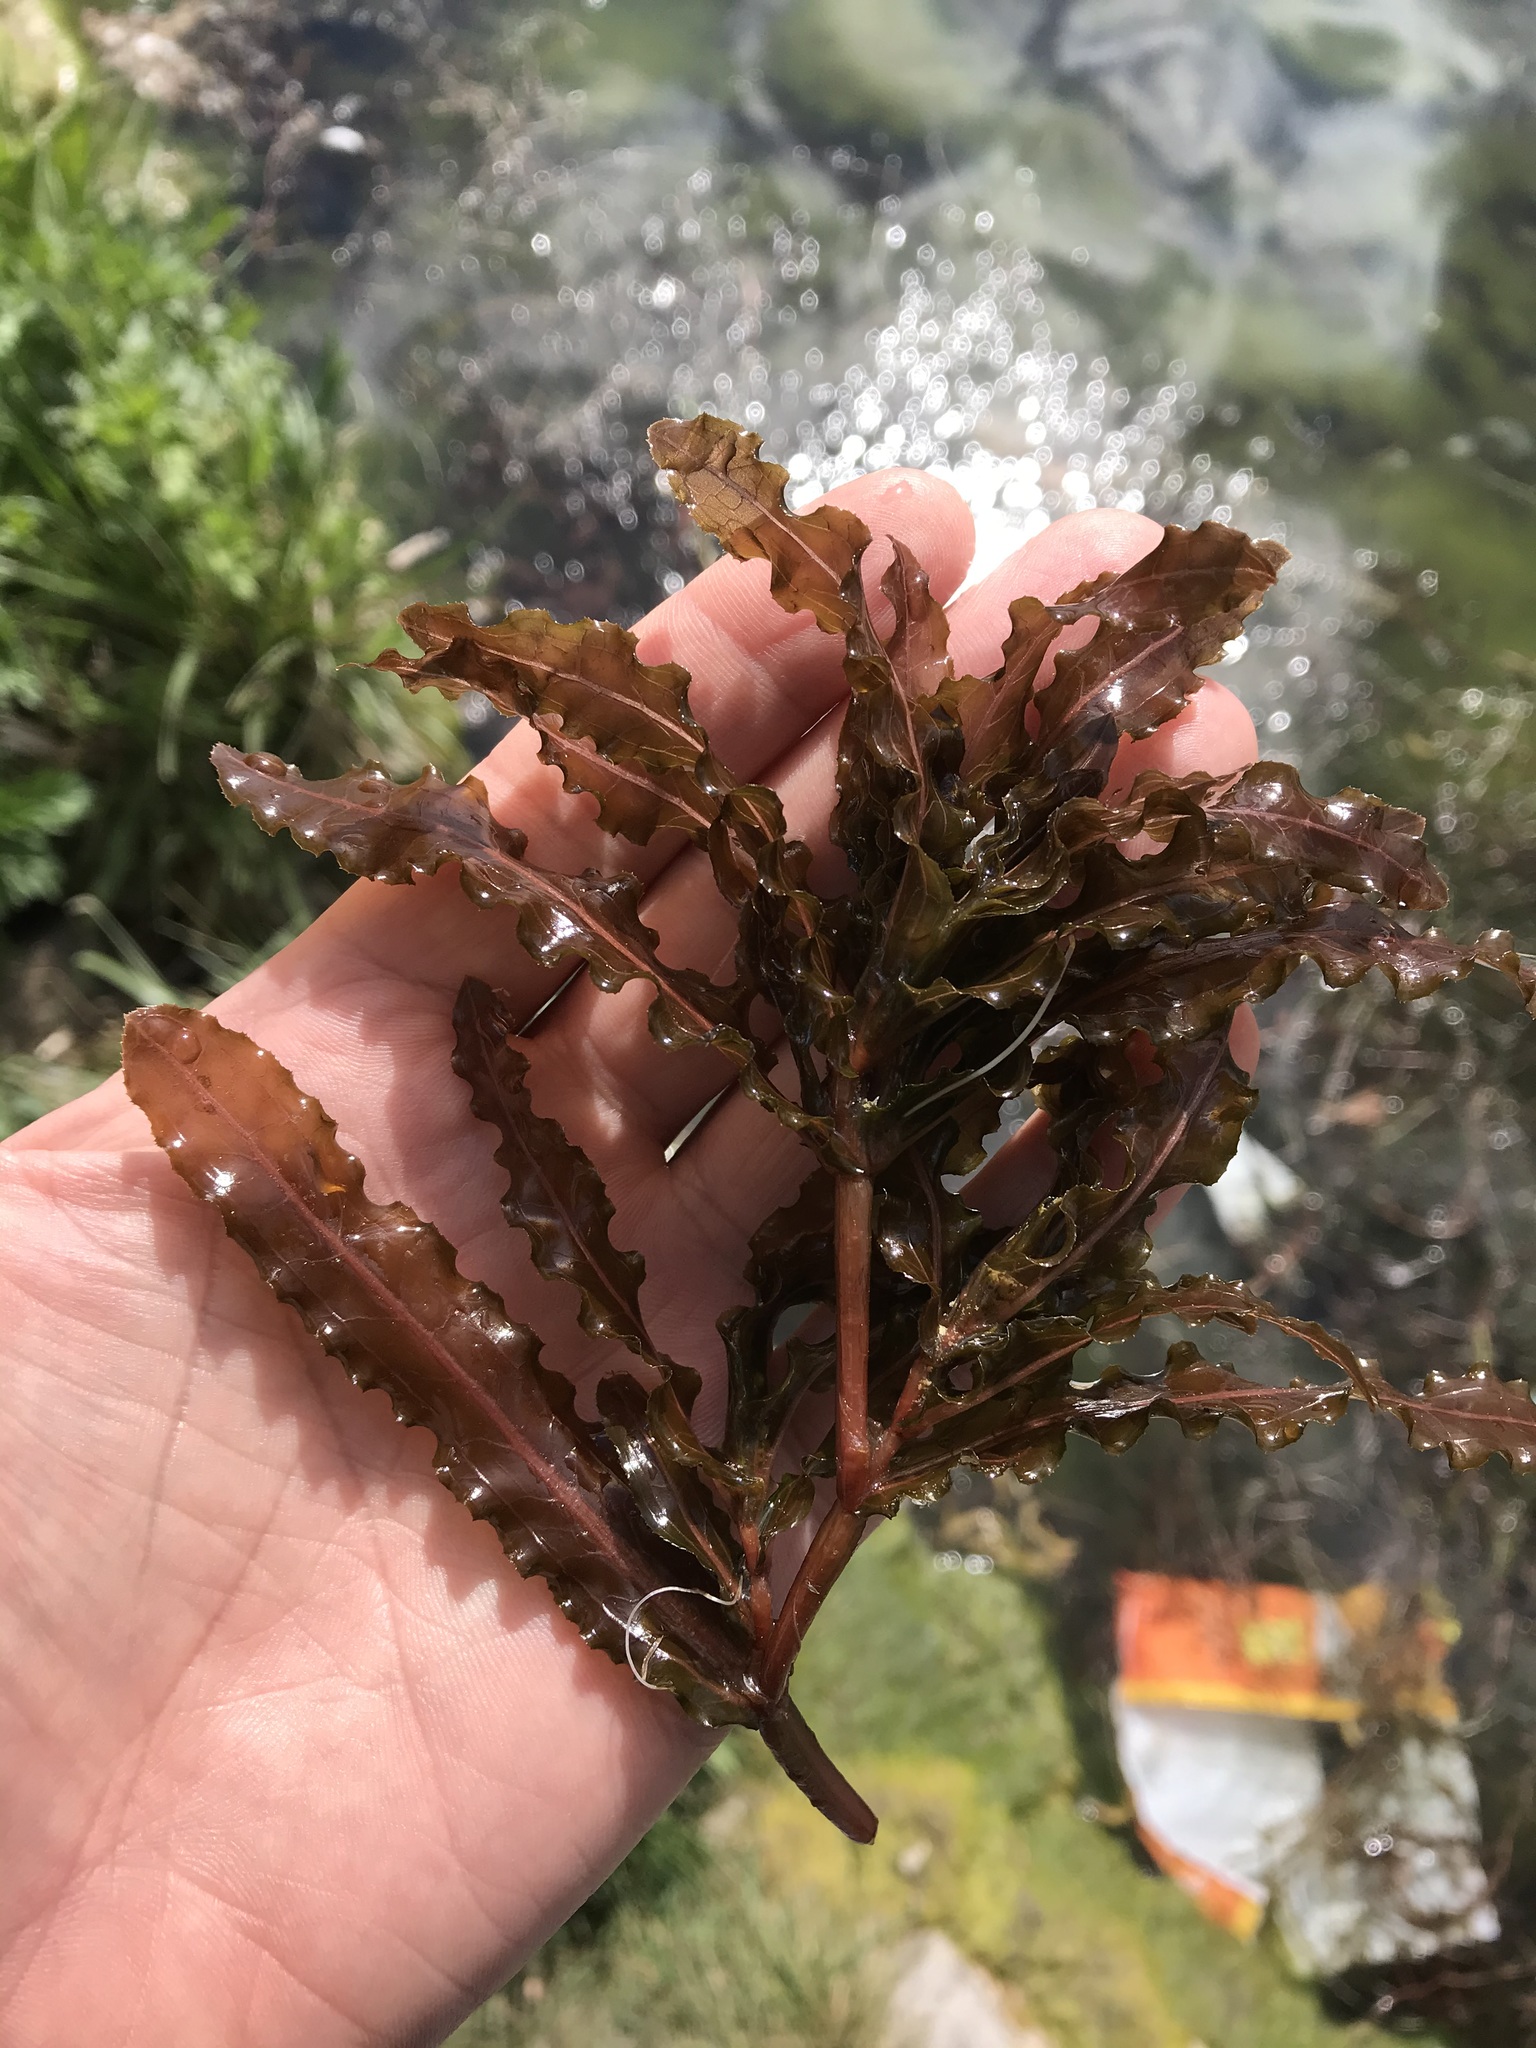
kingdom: Plantae
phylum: Tracheophyta
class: Liliopsida
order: Alismatales
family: Potamogetonaceae
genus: Potamogeton
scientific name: Potamogeton crispus
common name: Curled pondweed
